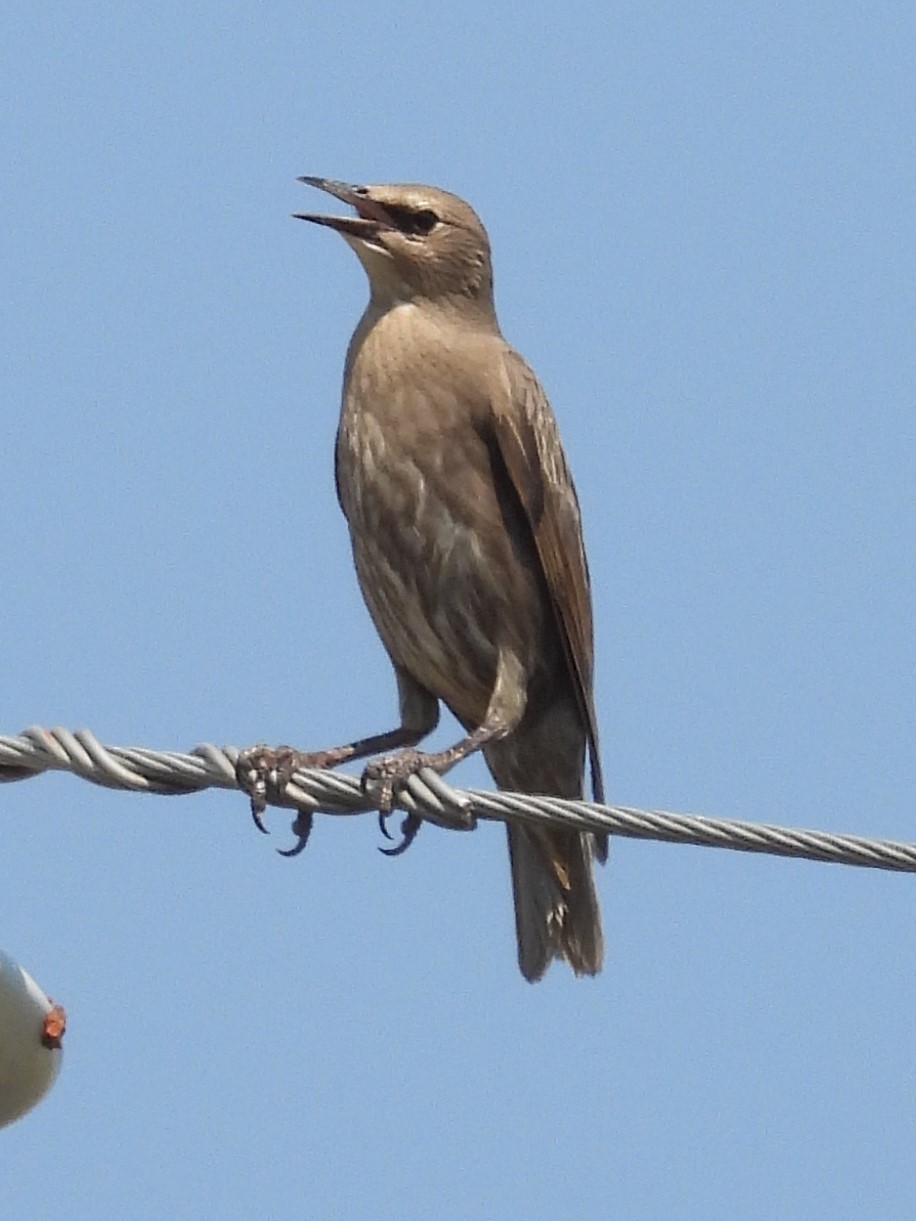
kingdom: Animalia
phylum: Chordata
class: Aves
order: Passeriformes
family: Sturnidae
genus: Sturnus
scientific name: Sturnus vulgaris
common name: Common starling
